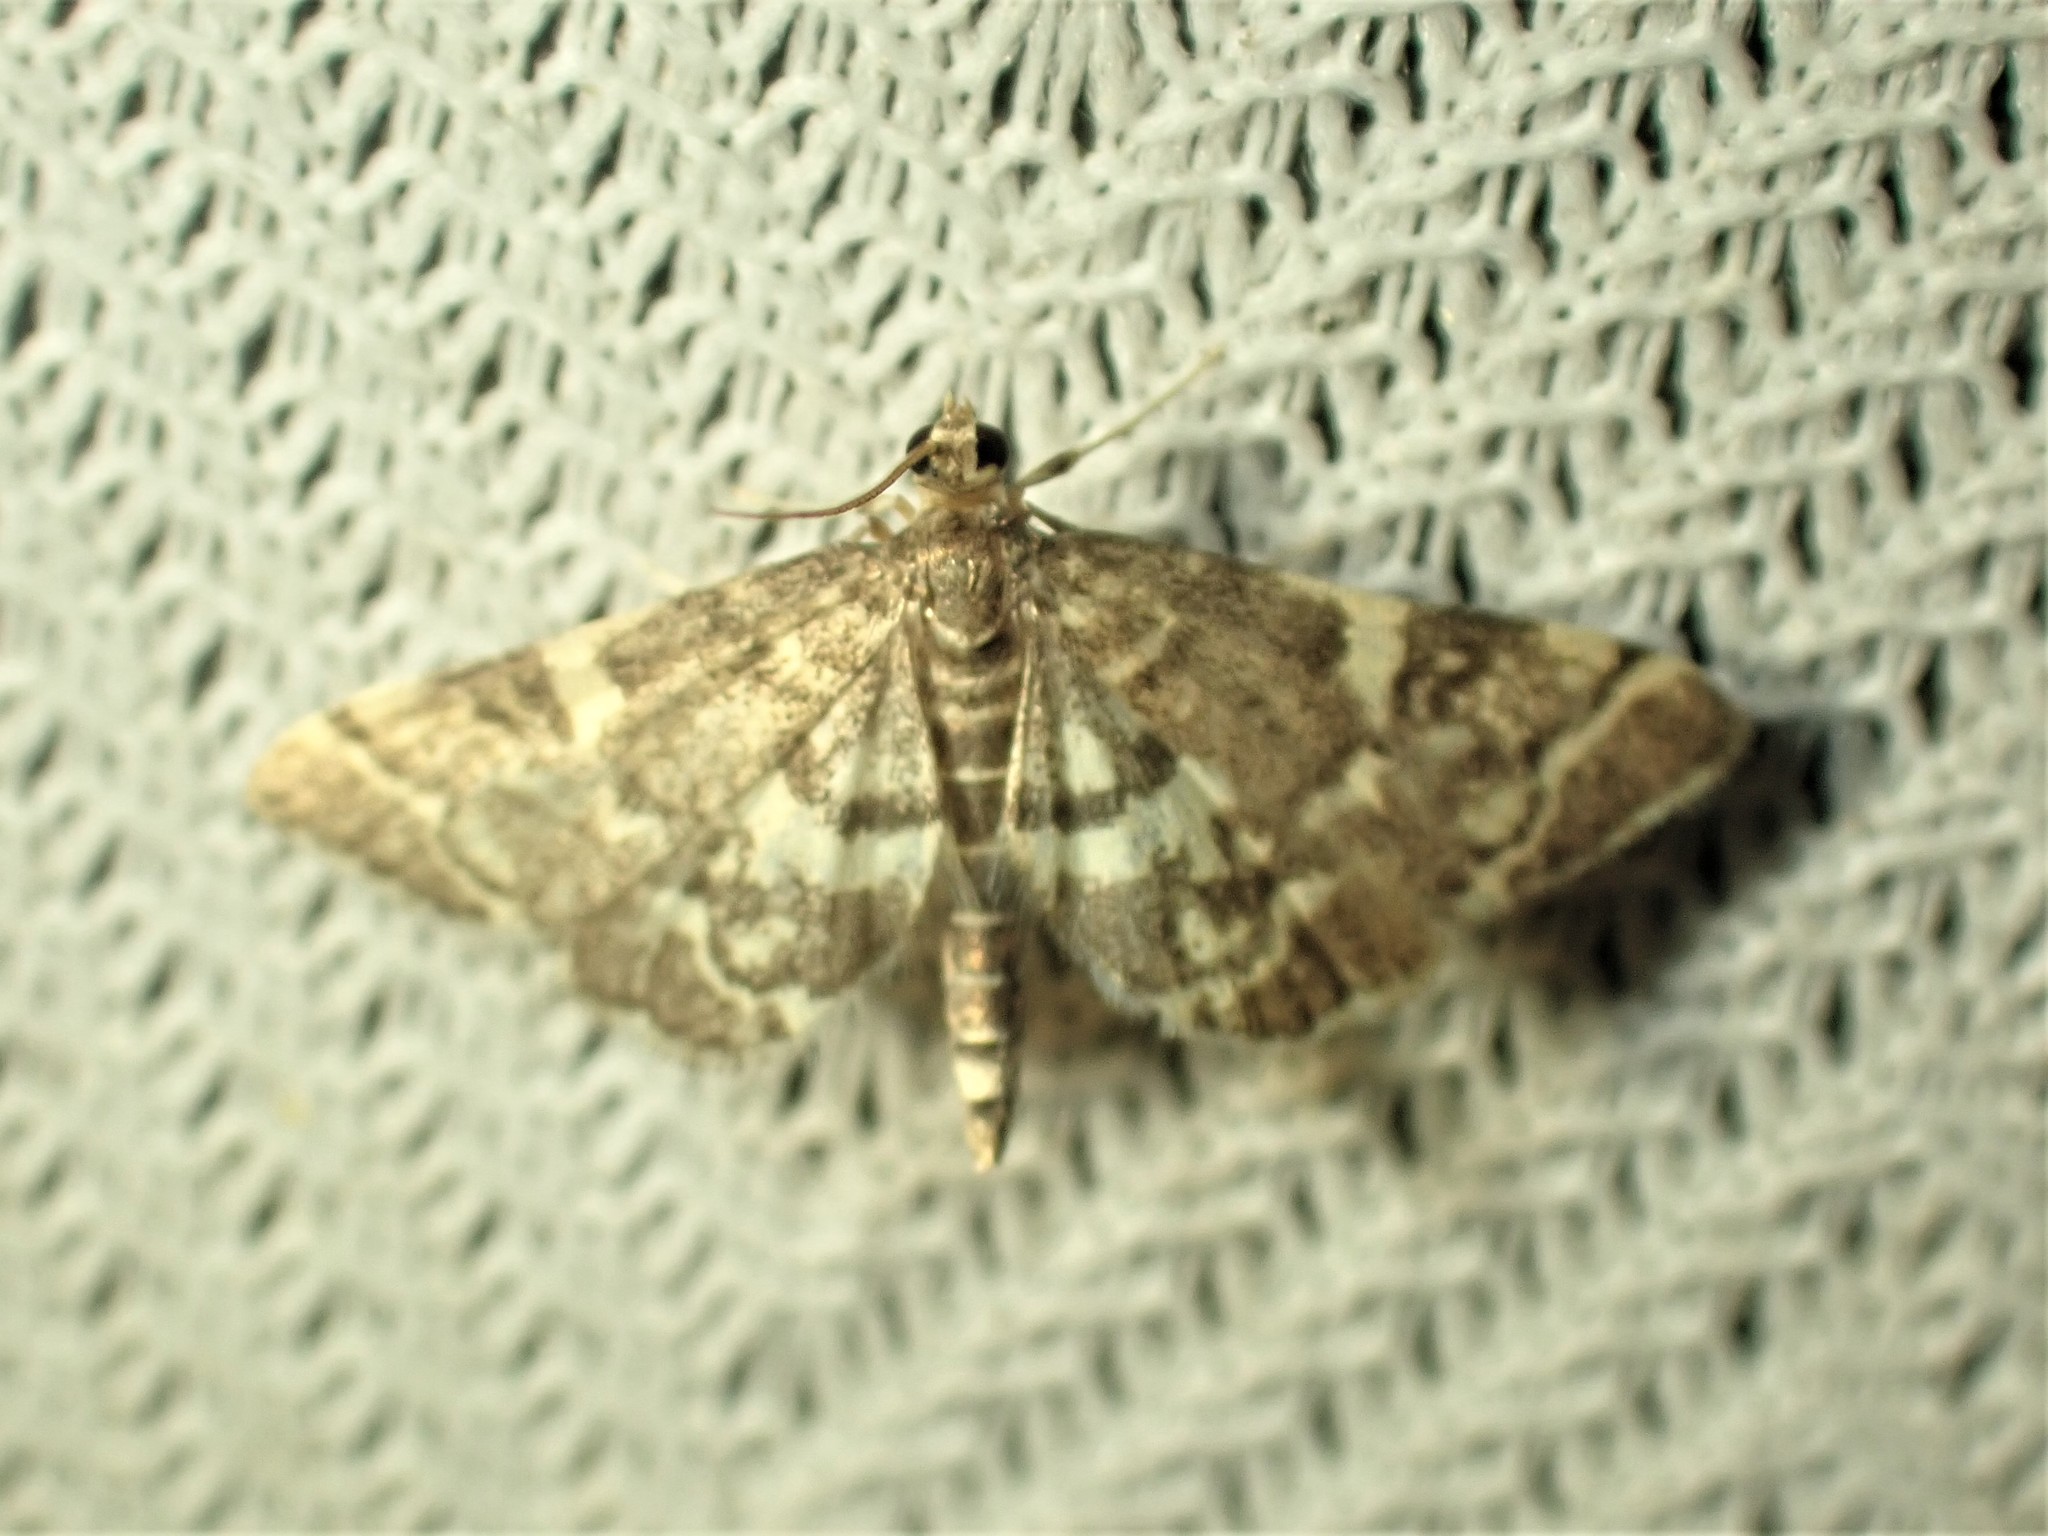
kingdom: Animalia
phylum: Arthropoda
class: Insecta
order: Lepidoptera
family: Crambidae
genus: Anageshna
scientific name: Anageshna primordialis
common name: Yellow-spotted webworm moth
